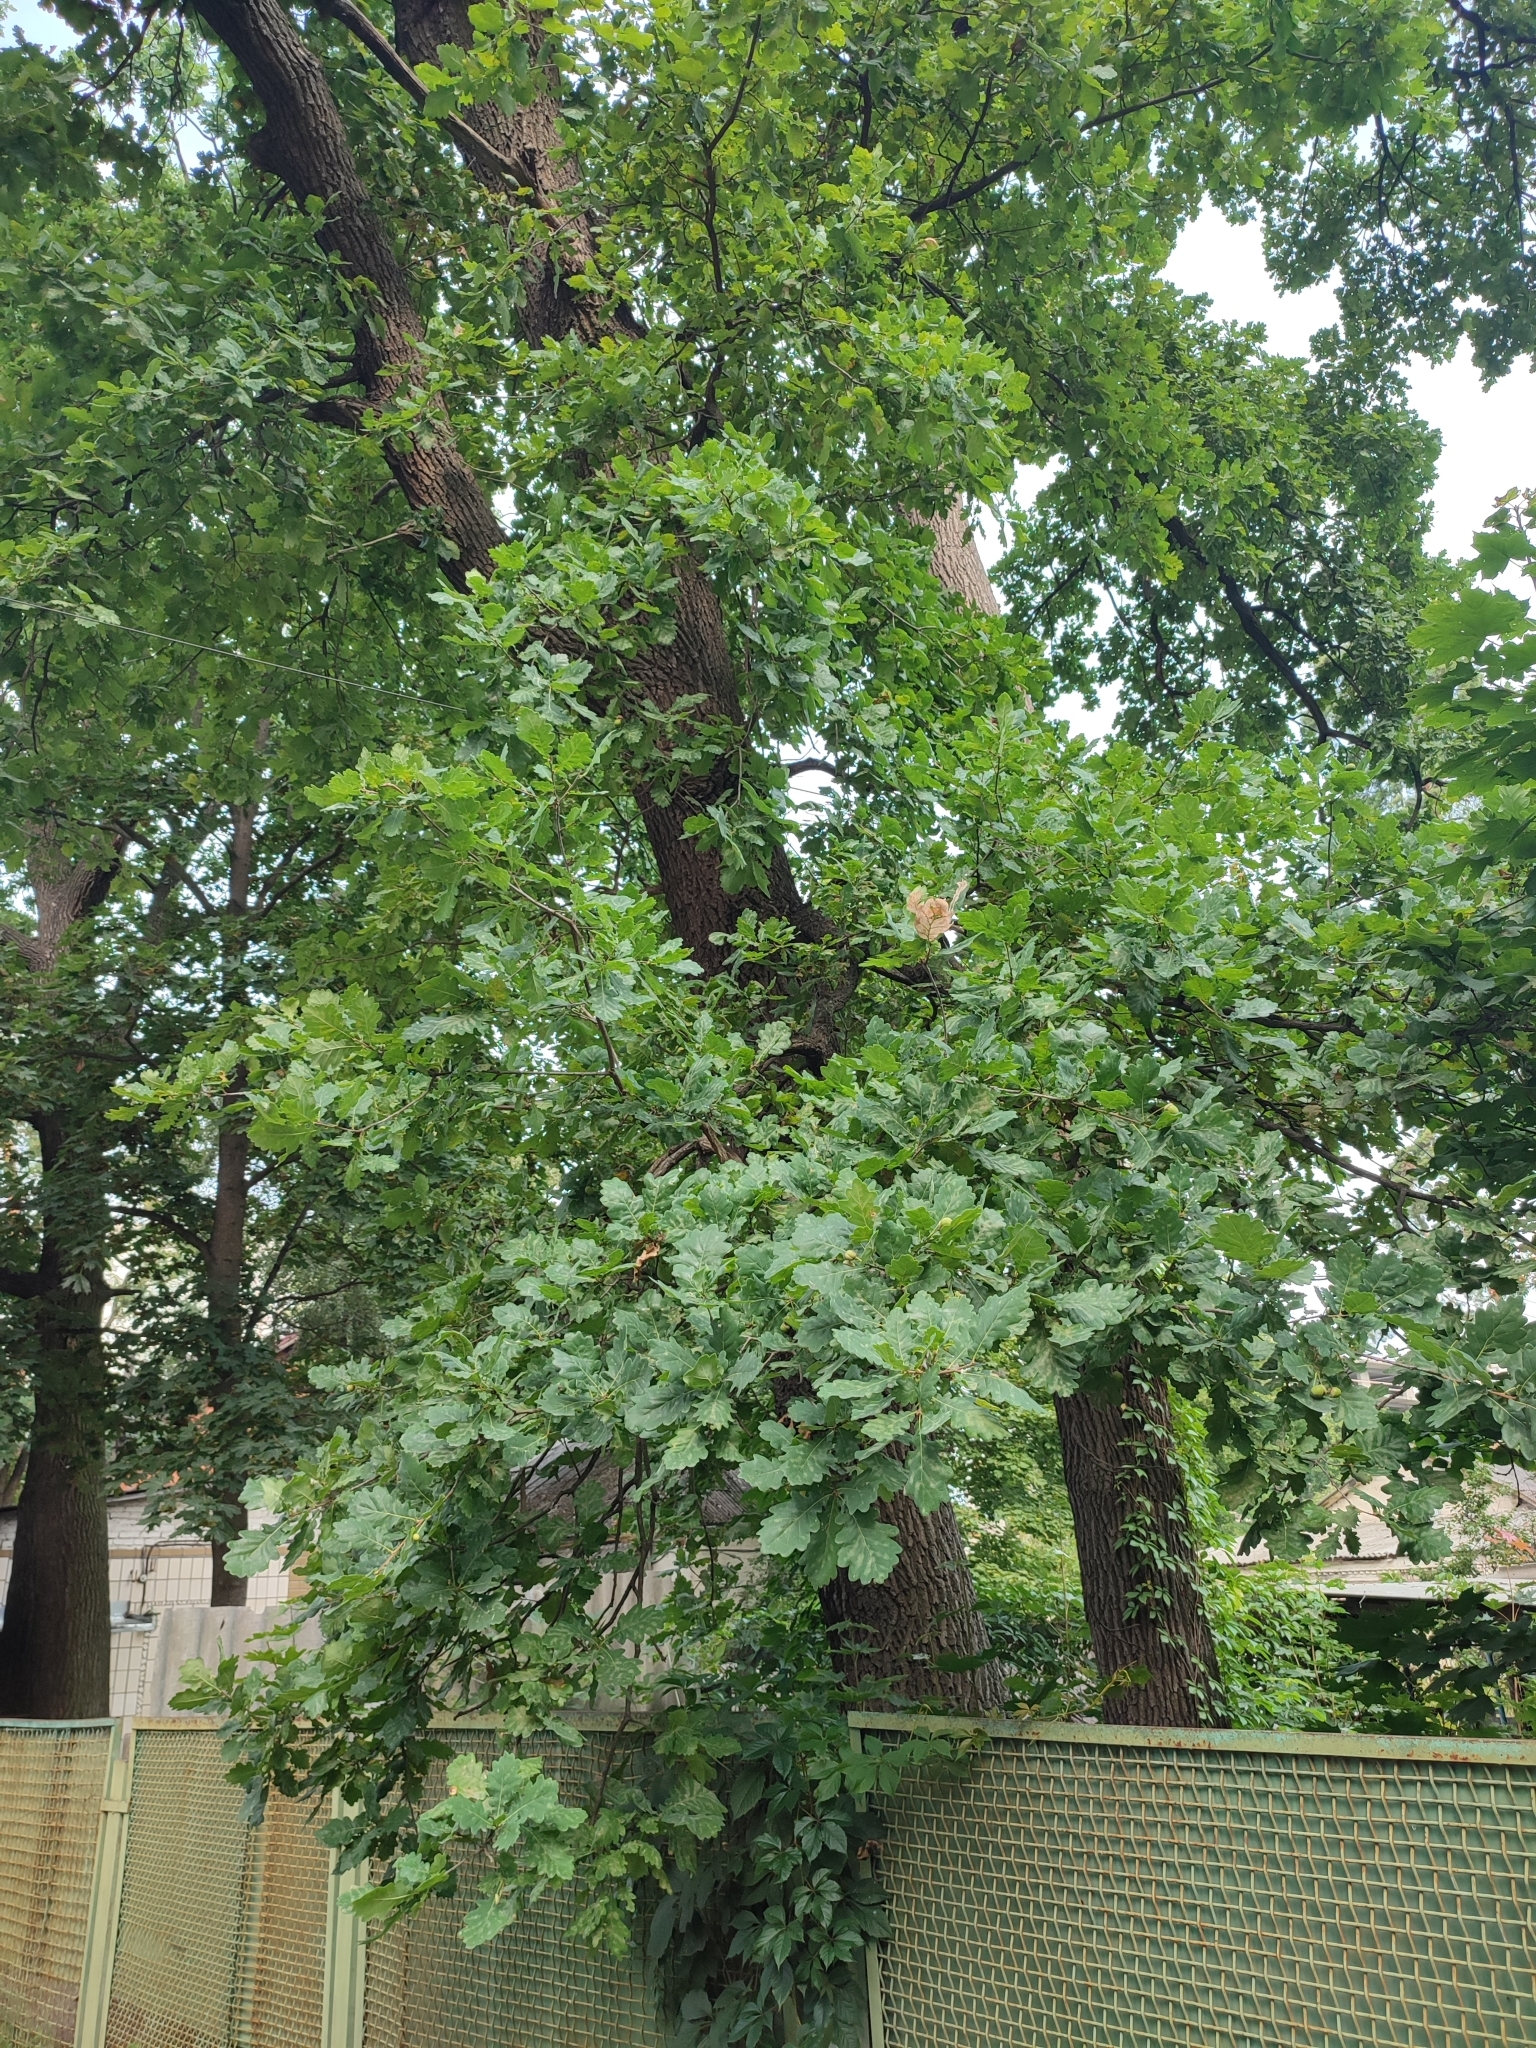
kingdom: Plantae
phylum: Tracheophyta
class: Magnoliopsida
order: Fagales
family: Fagaceae
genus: Quercus
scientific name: Quercus robur
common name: Pedunculate oak
